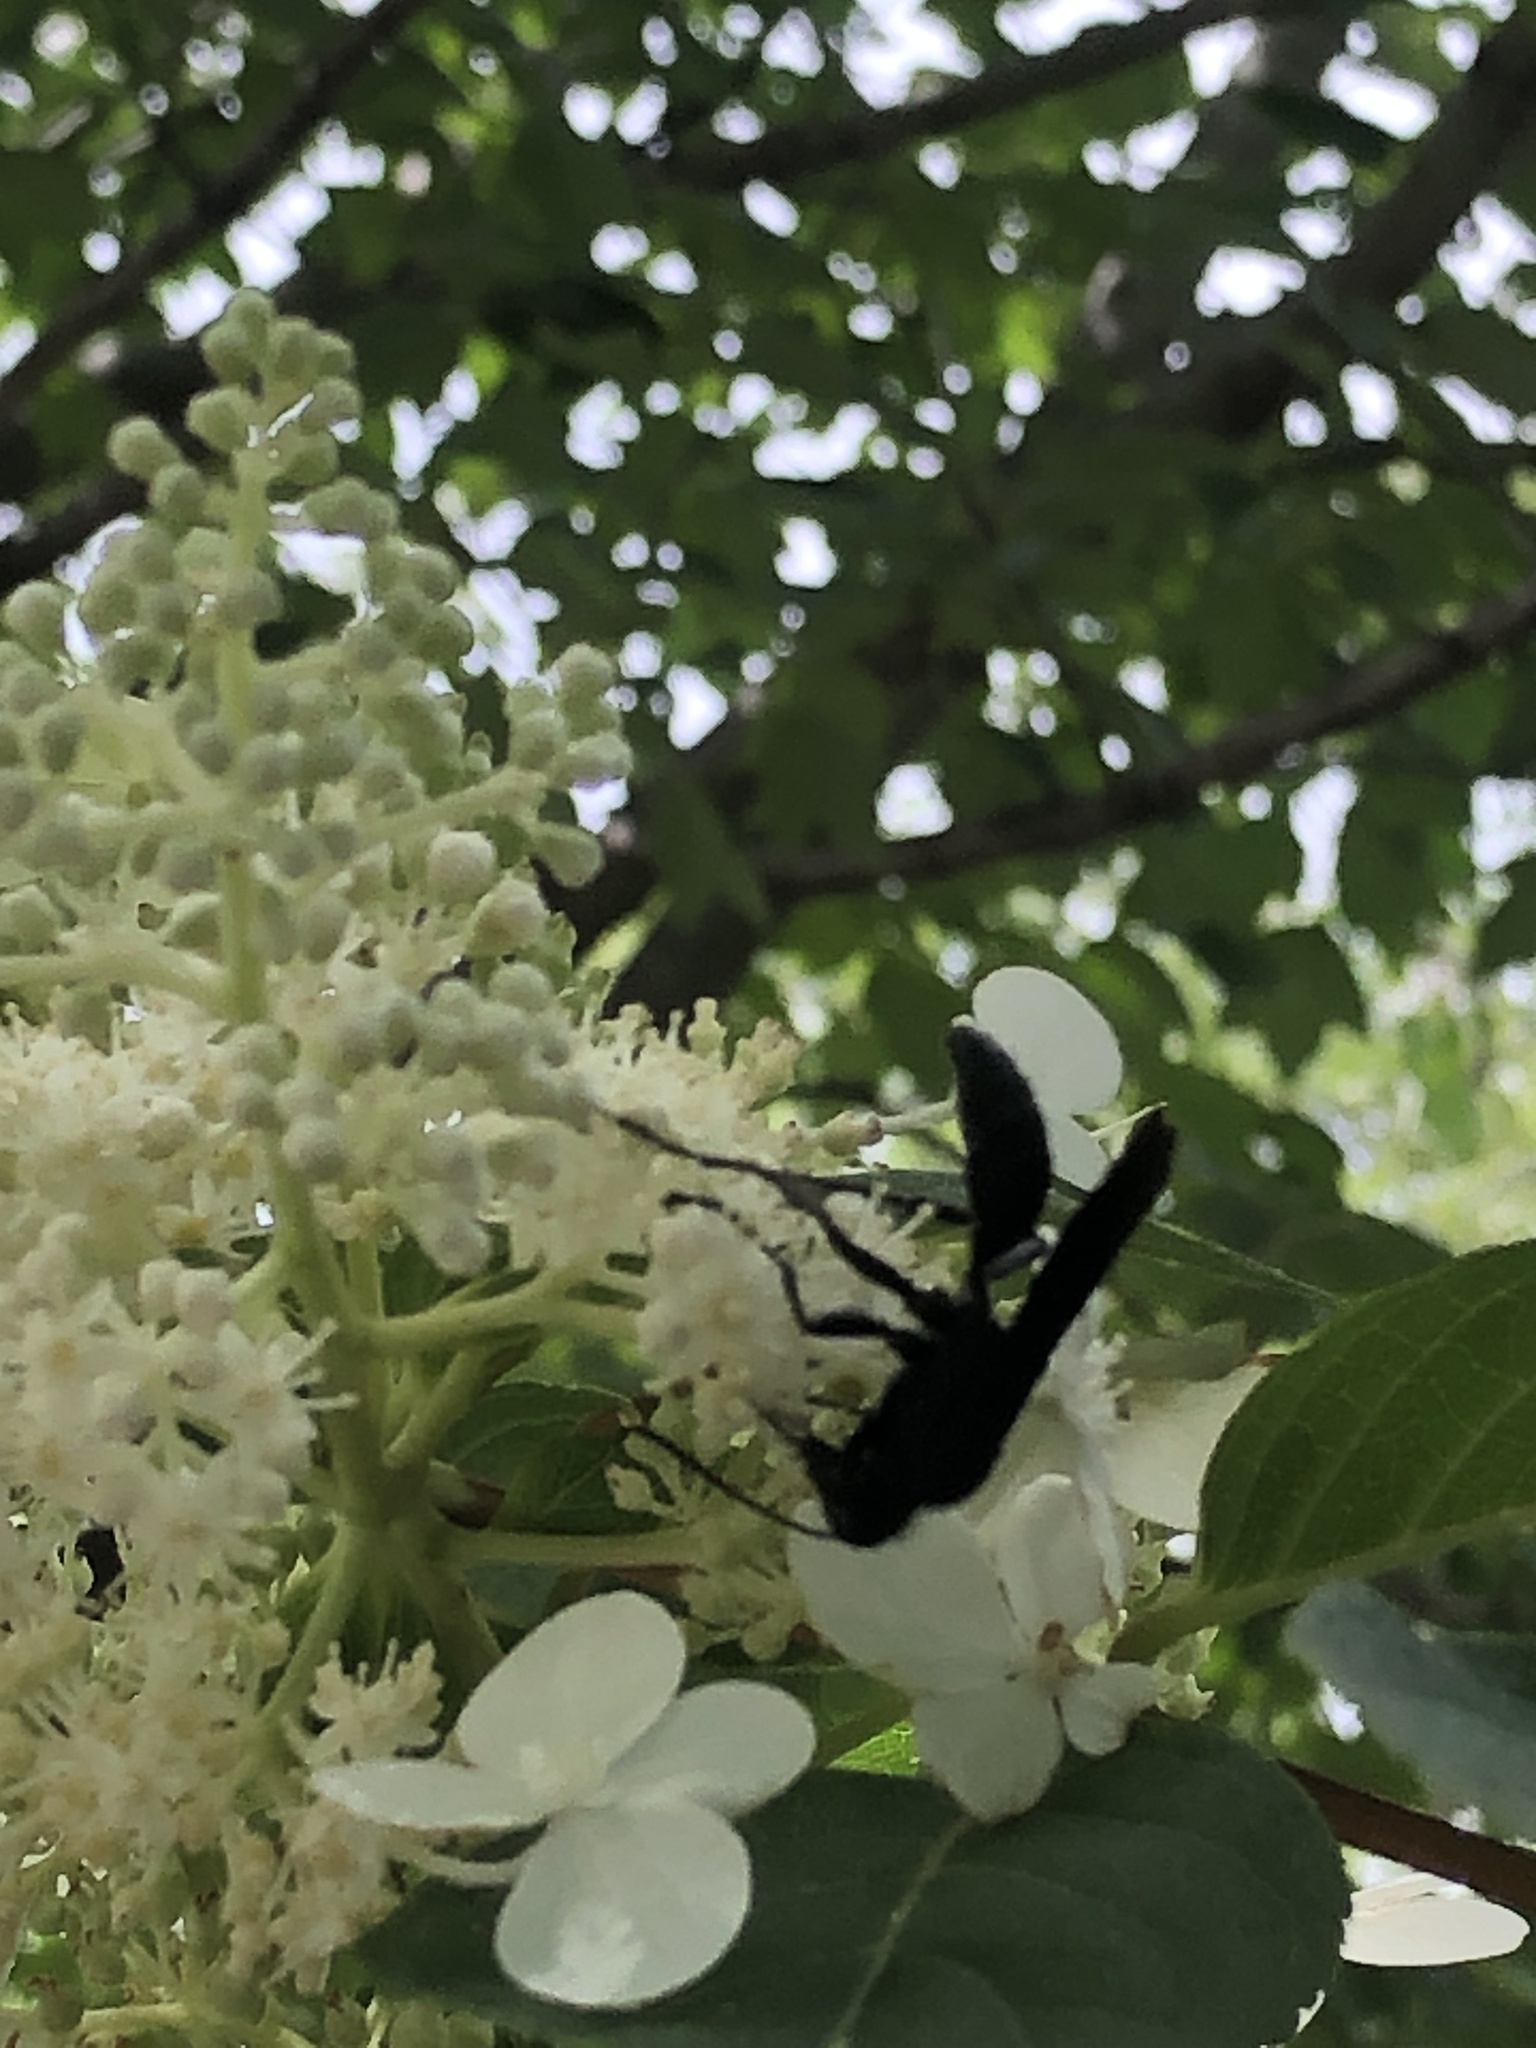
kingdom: Animalia
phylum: Arthropoda
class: Insecta
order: Hymenoptera
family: Sphecidae
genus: Sphex
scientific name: Sphex pensylvanicus
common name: Great black digger wasp
